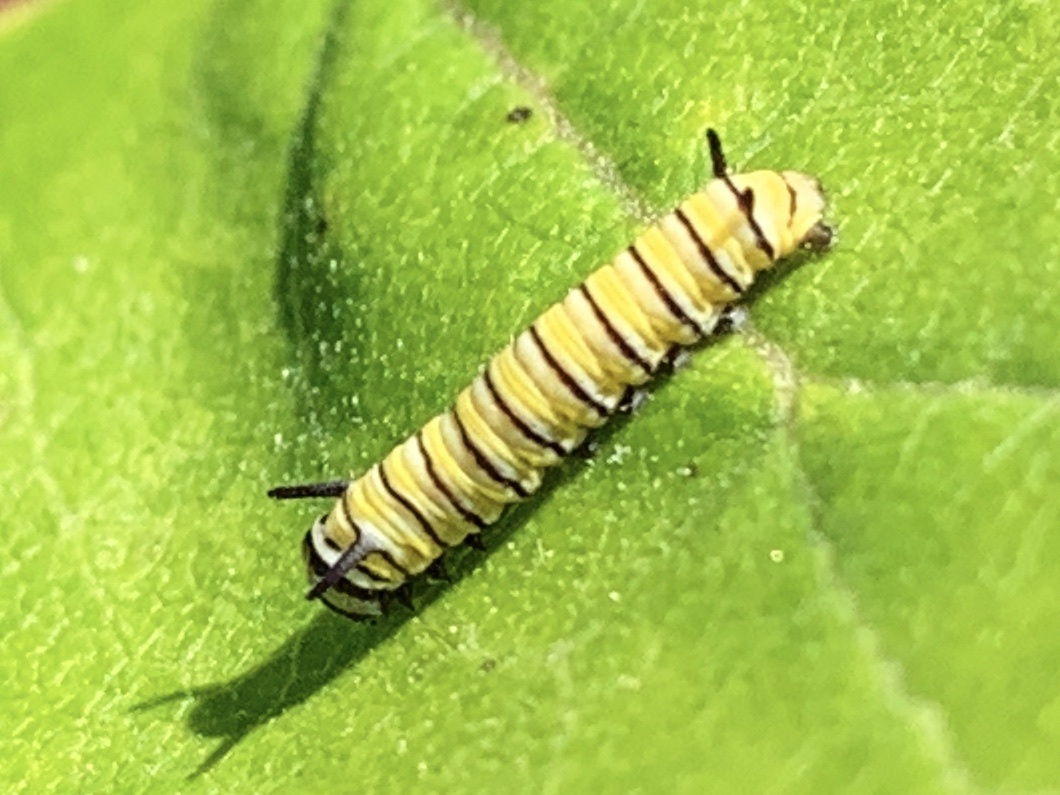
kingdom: Animalia
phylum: Arthropoda
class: Insecta
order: Lepidoptera
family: Nymphalidae
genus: Danaus
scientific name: Danaus plexippus
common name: Monarch
